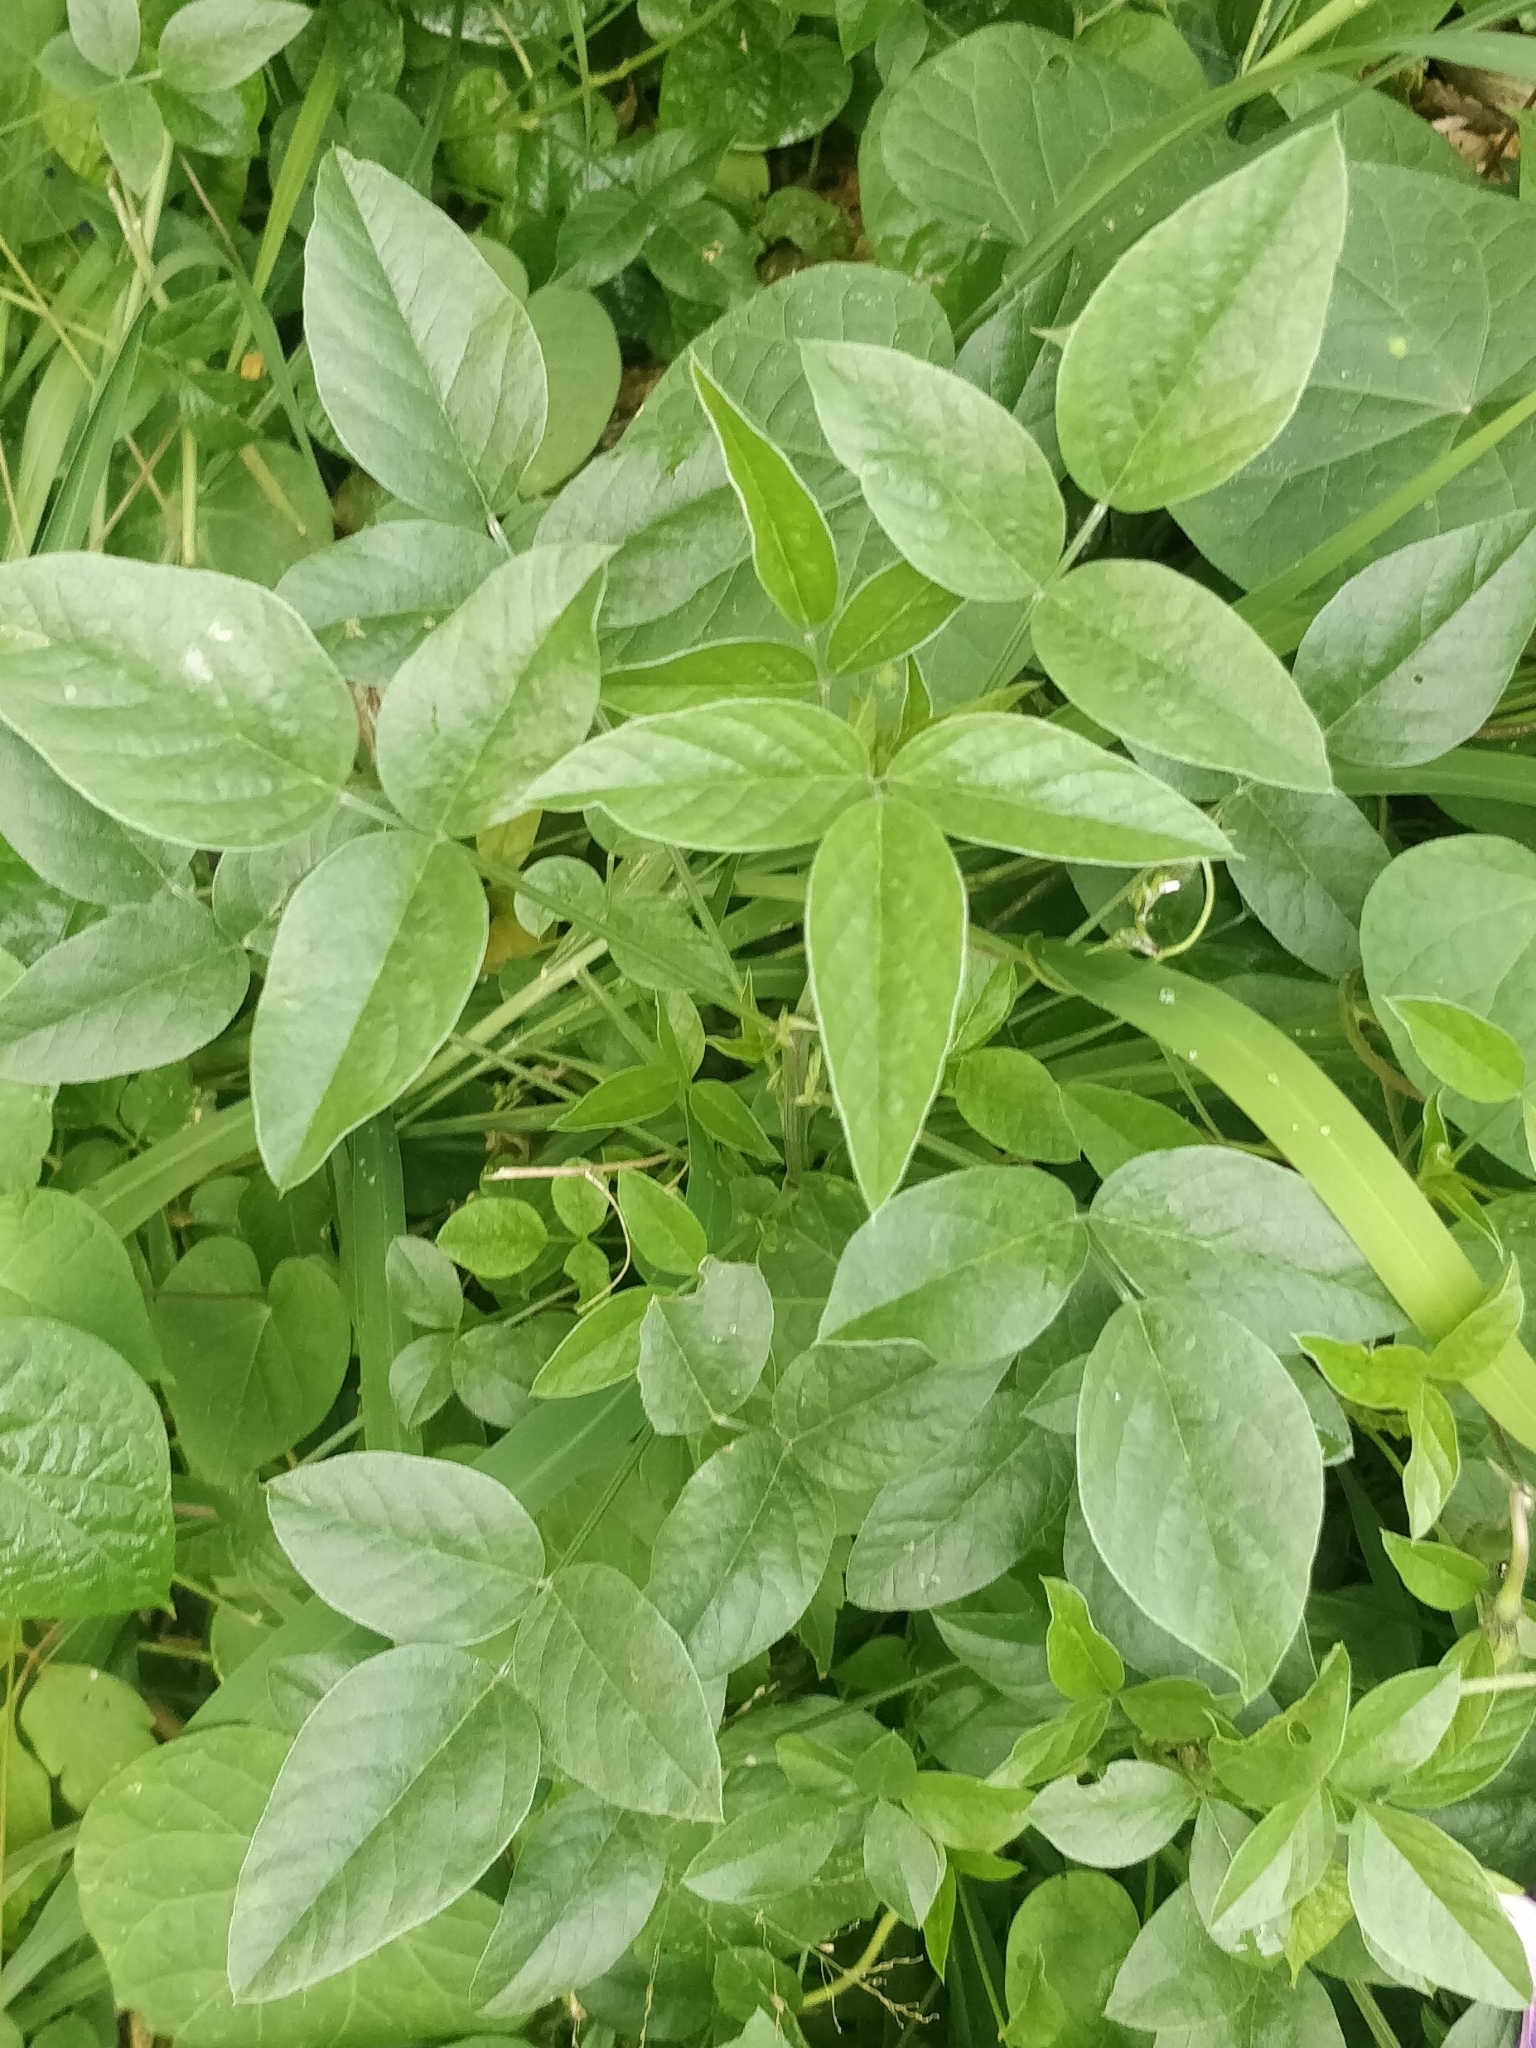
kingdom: Plantae
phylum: Tracheophyta
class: Magnoliopsida
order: Fabales
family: Fabaceae
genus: Bituminaria
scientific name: Bituminaria bituminosa
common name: Arabian pea
